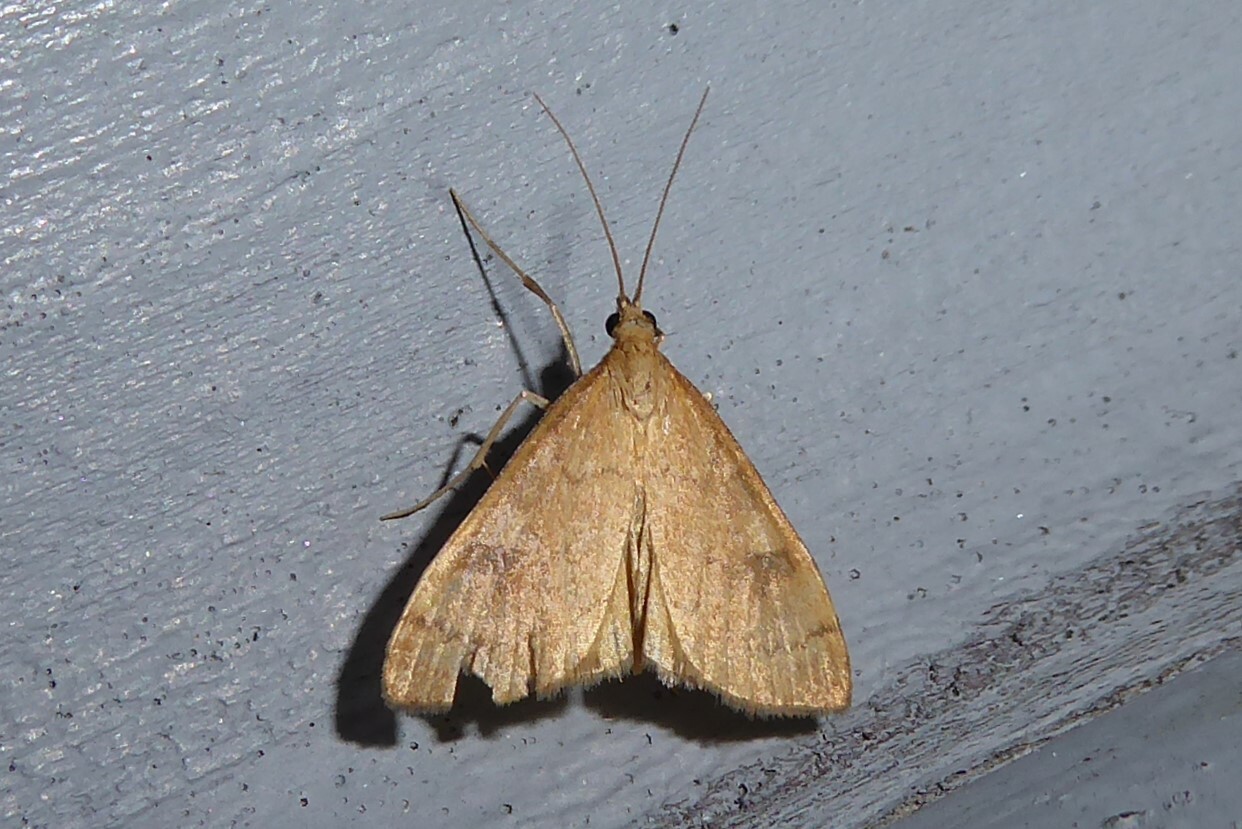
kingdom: Animalia
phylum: Arthropoda
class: Insecta
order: Lepidoptera
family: Crambidae
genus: Udea
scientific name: Udea Mnesictena flavidalis
